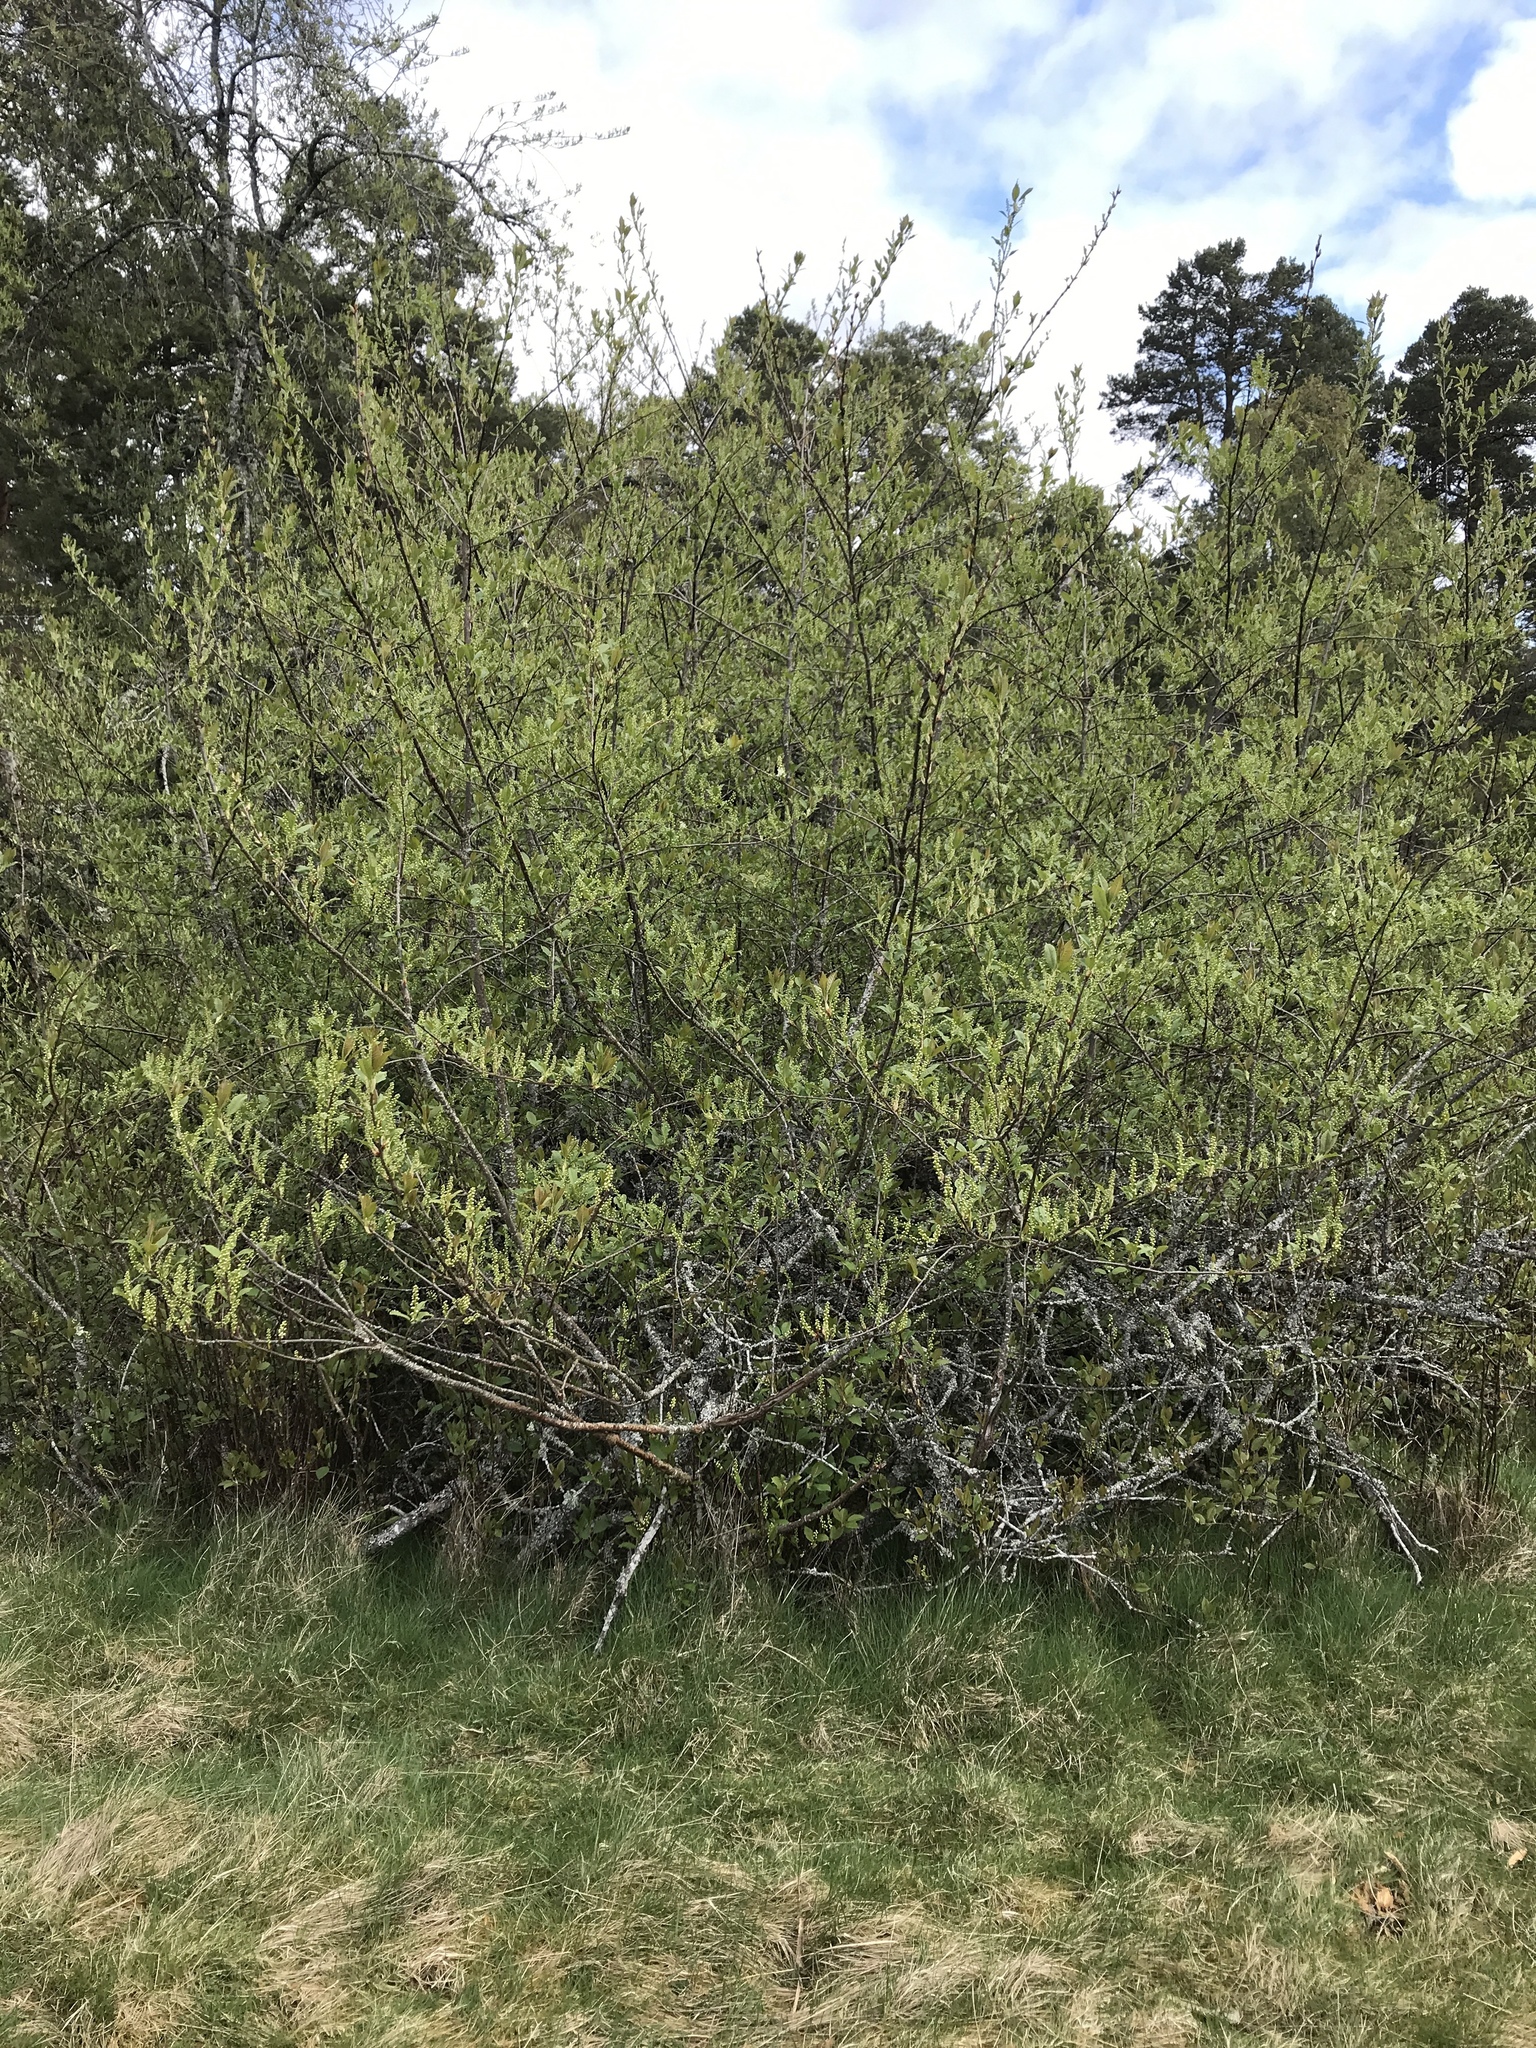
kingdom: Plantae
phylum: Tracheophyta
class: Magnoliopsida
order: Rosales
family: Rosaceae
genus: Prunus
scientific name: Prunus padus
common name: Bird cherry
